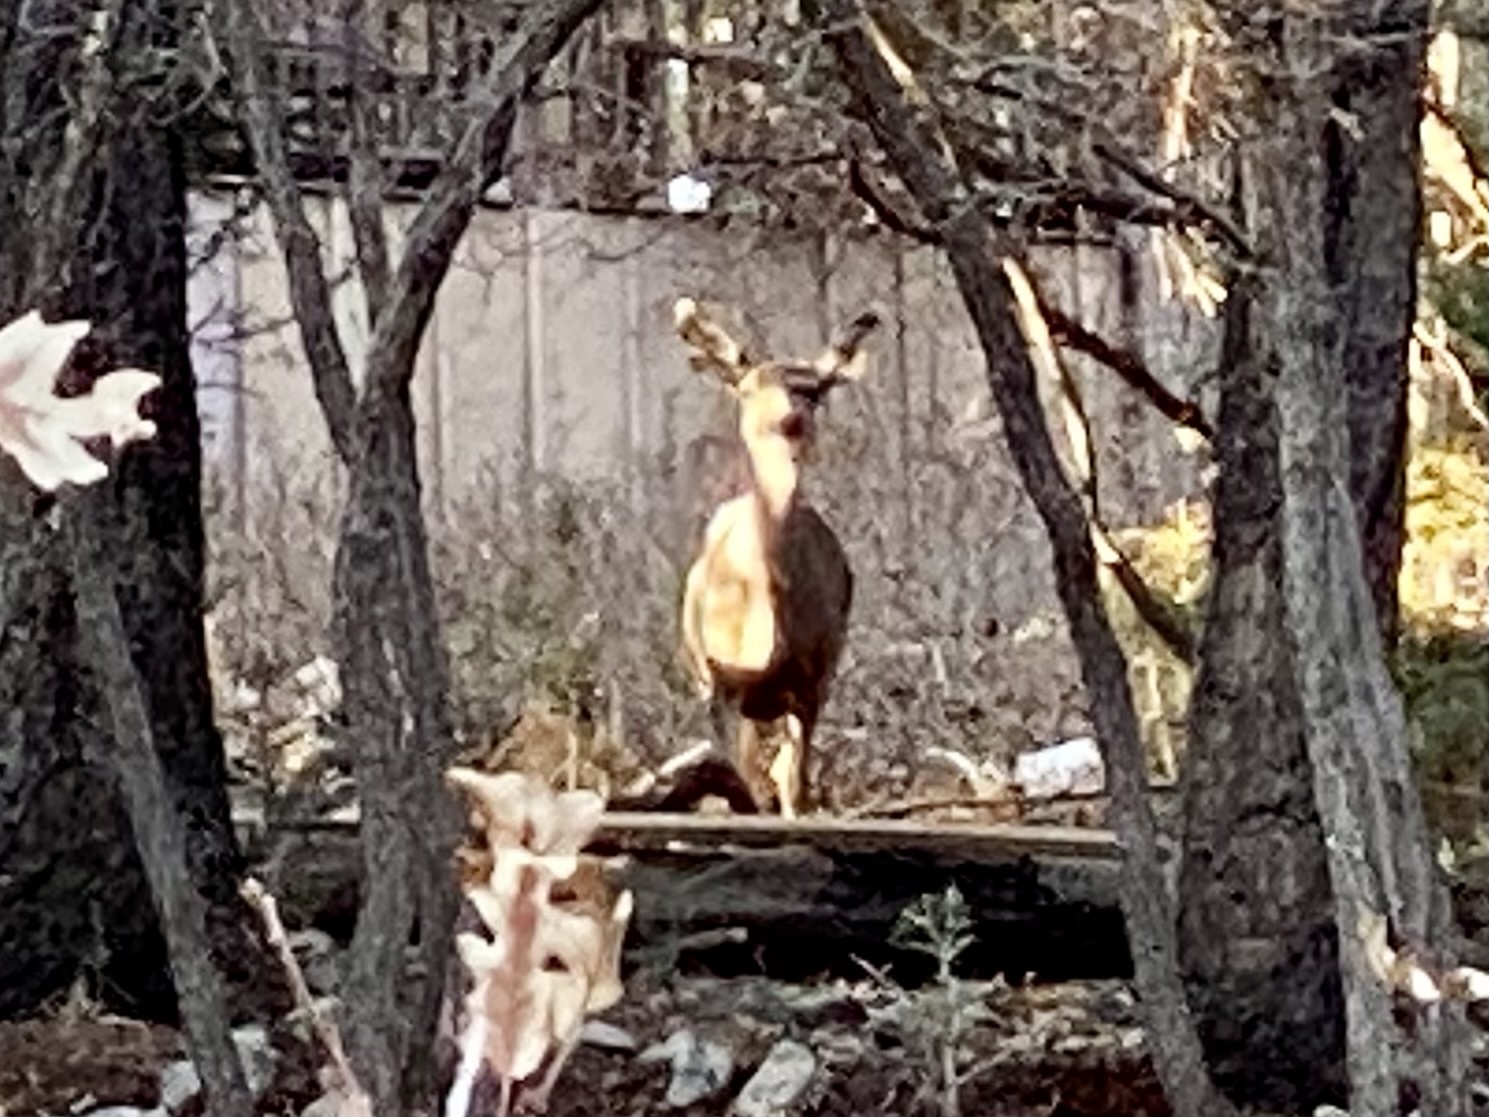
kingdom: Animalia
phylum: Chordata
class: Mammalia
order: Artiodactyla
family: Cervidae
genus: Odocoileus
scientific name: Odocoileus hemionus
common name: Mule deer
